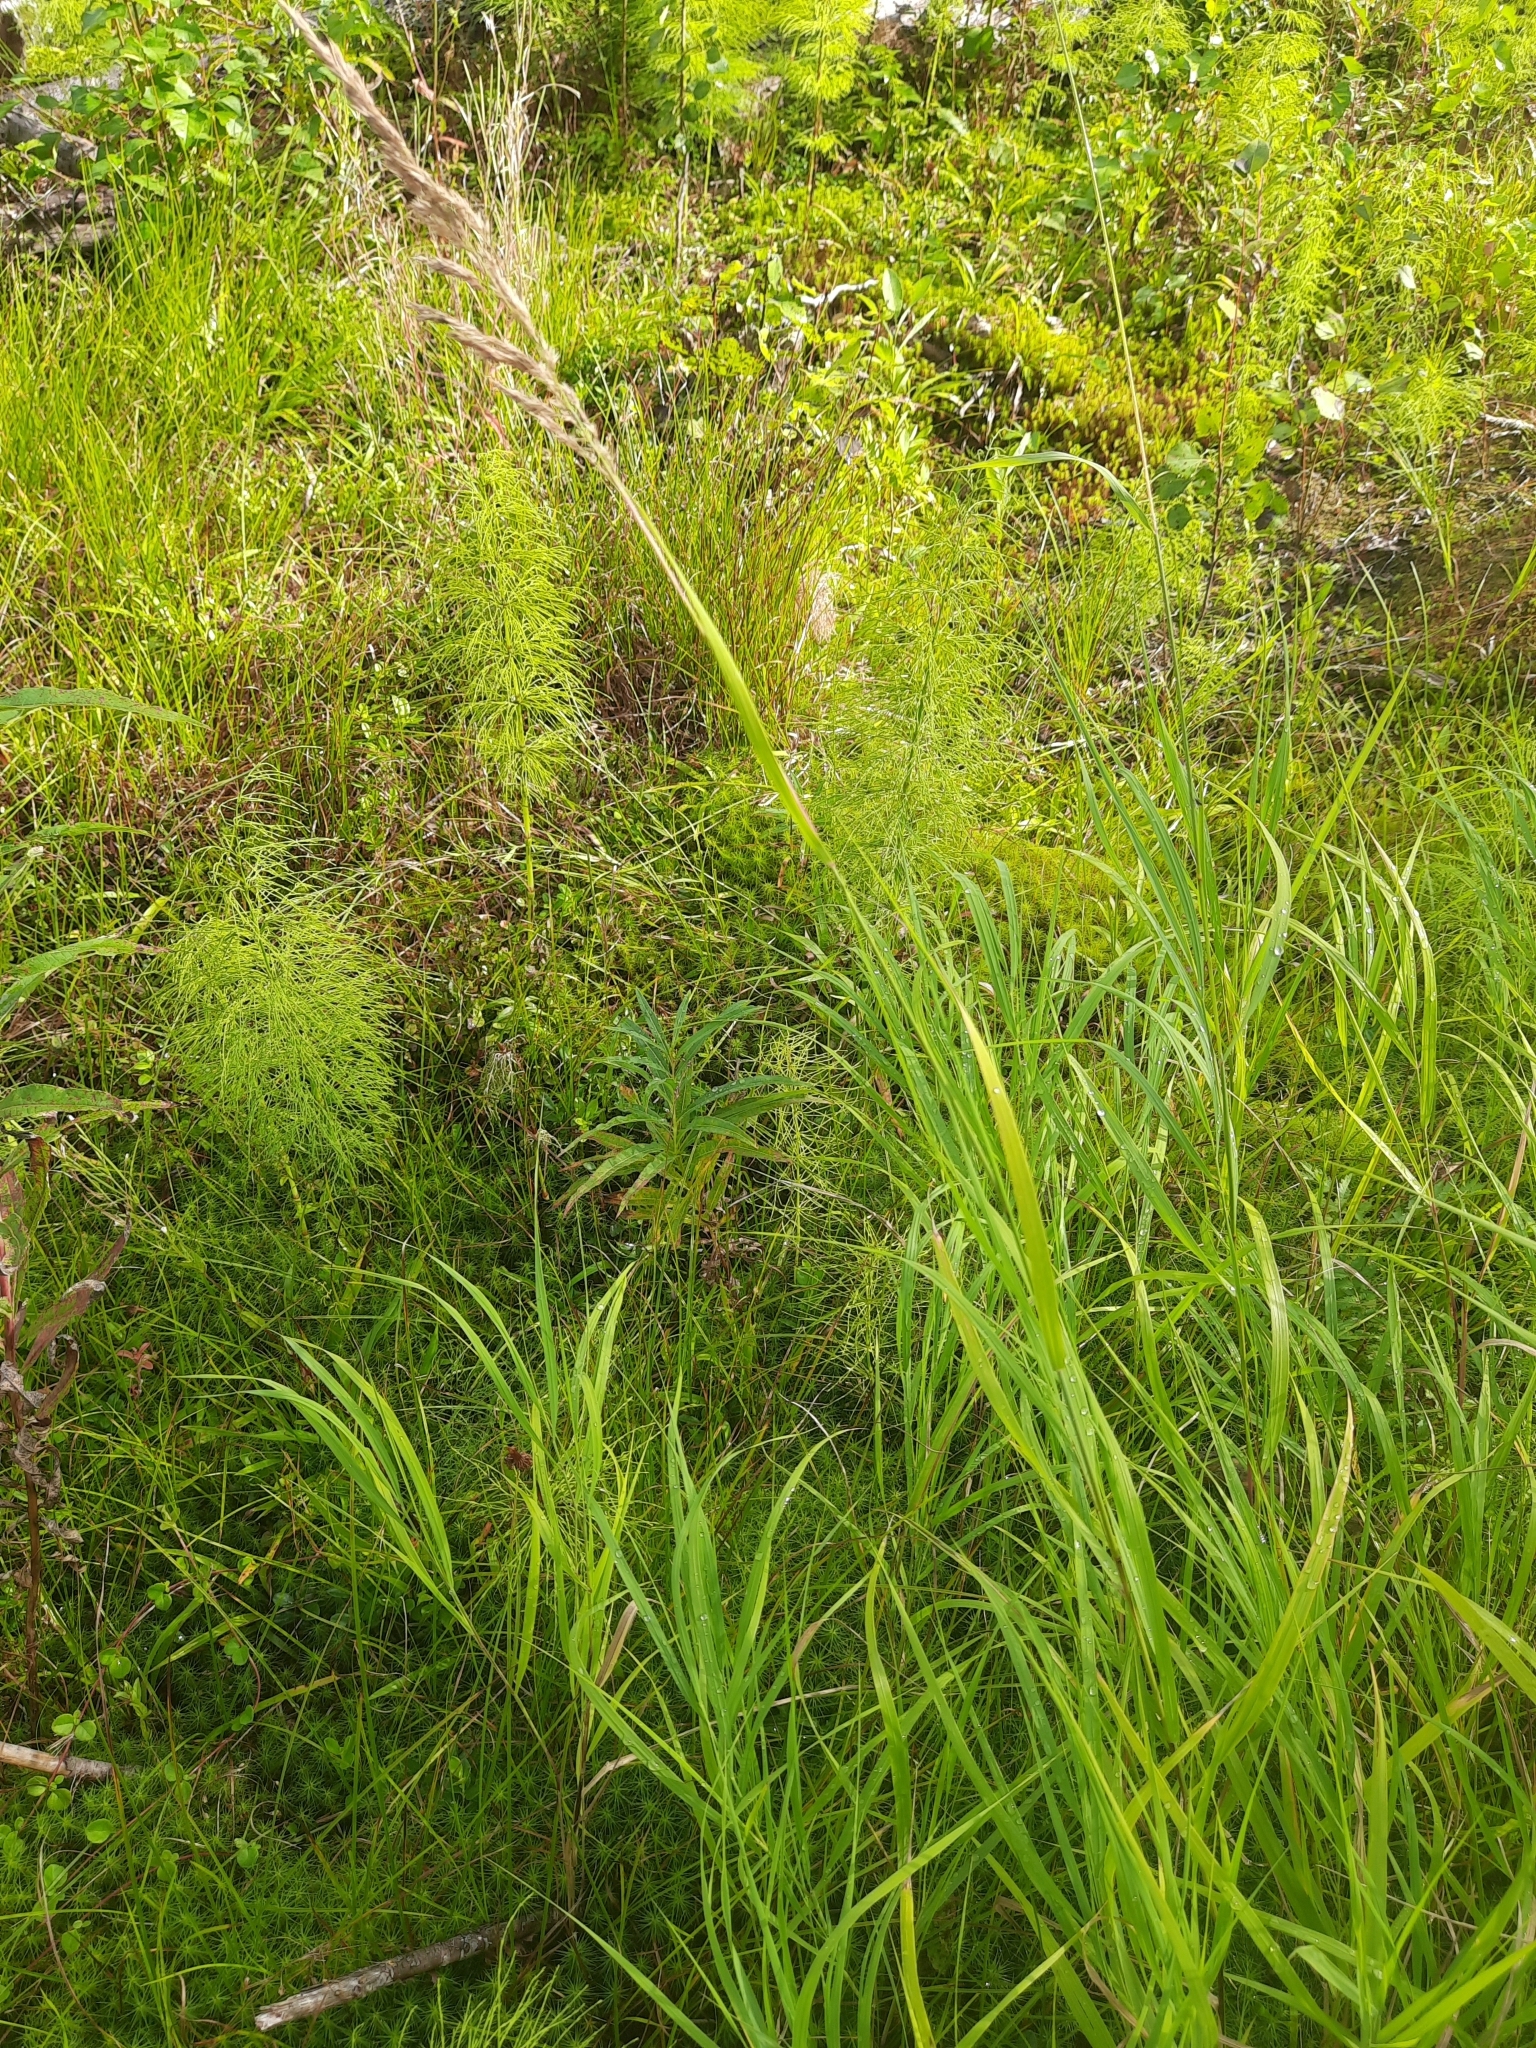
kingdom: Plantae
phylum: Tracheophyta
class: Liliopsida
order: Poales
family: Poaceae
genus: Deschampsia
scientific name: Deschampsia cespitosa
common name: Tufted hair-grass
